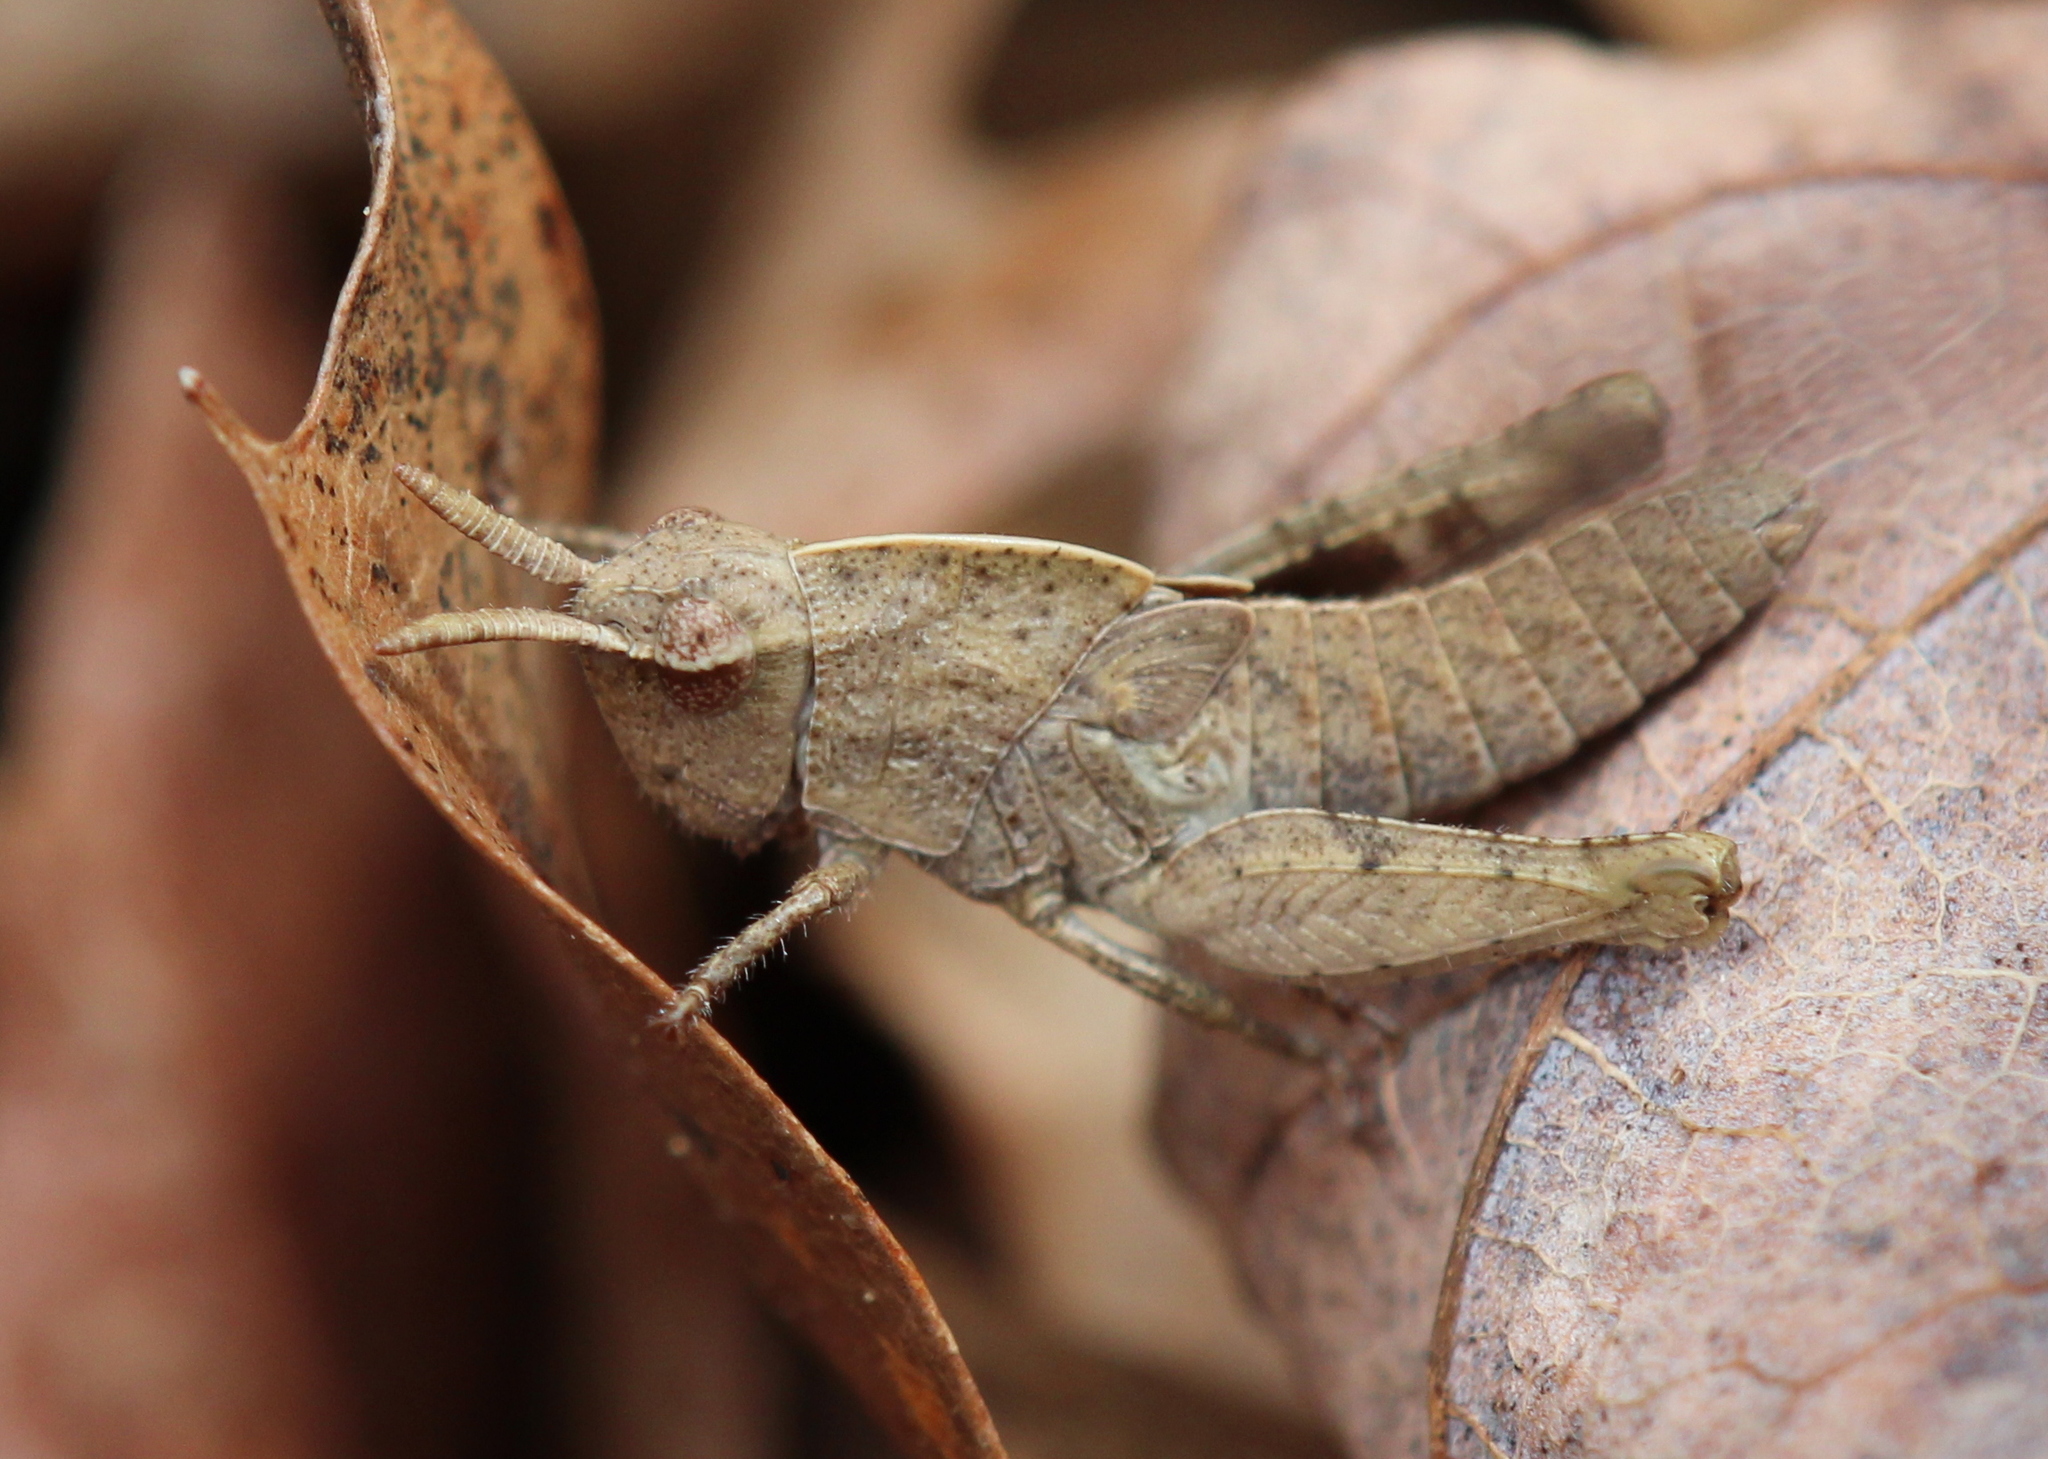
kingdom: Animalia
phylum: Arthropoda
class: Insecta
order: Orthoptera
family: Acrididae
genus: Chortophaga
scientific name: Chortophaga viridifasciata
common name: Green-striped grasshopper
